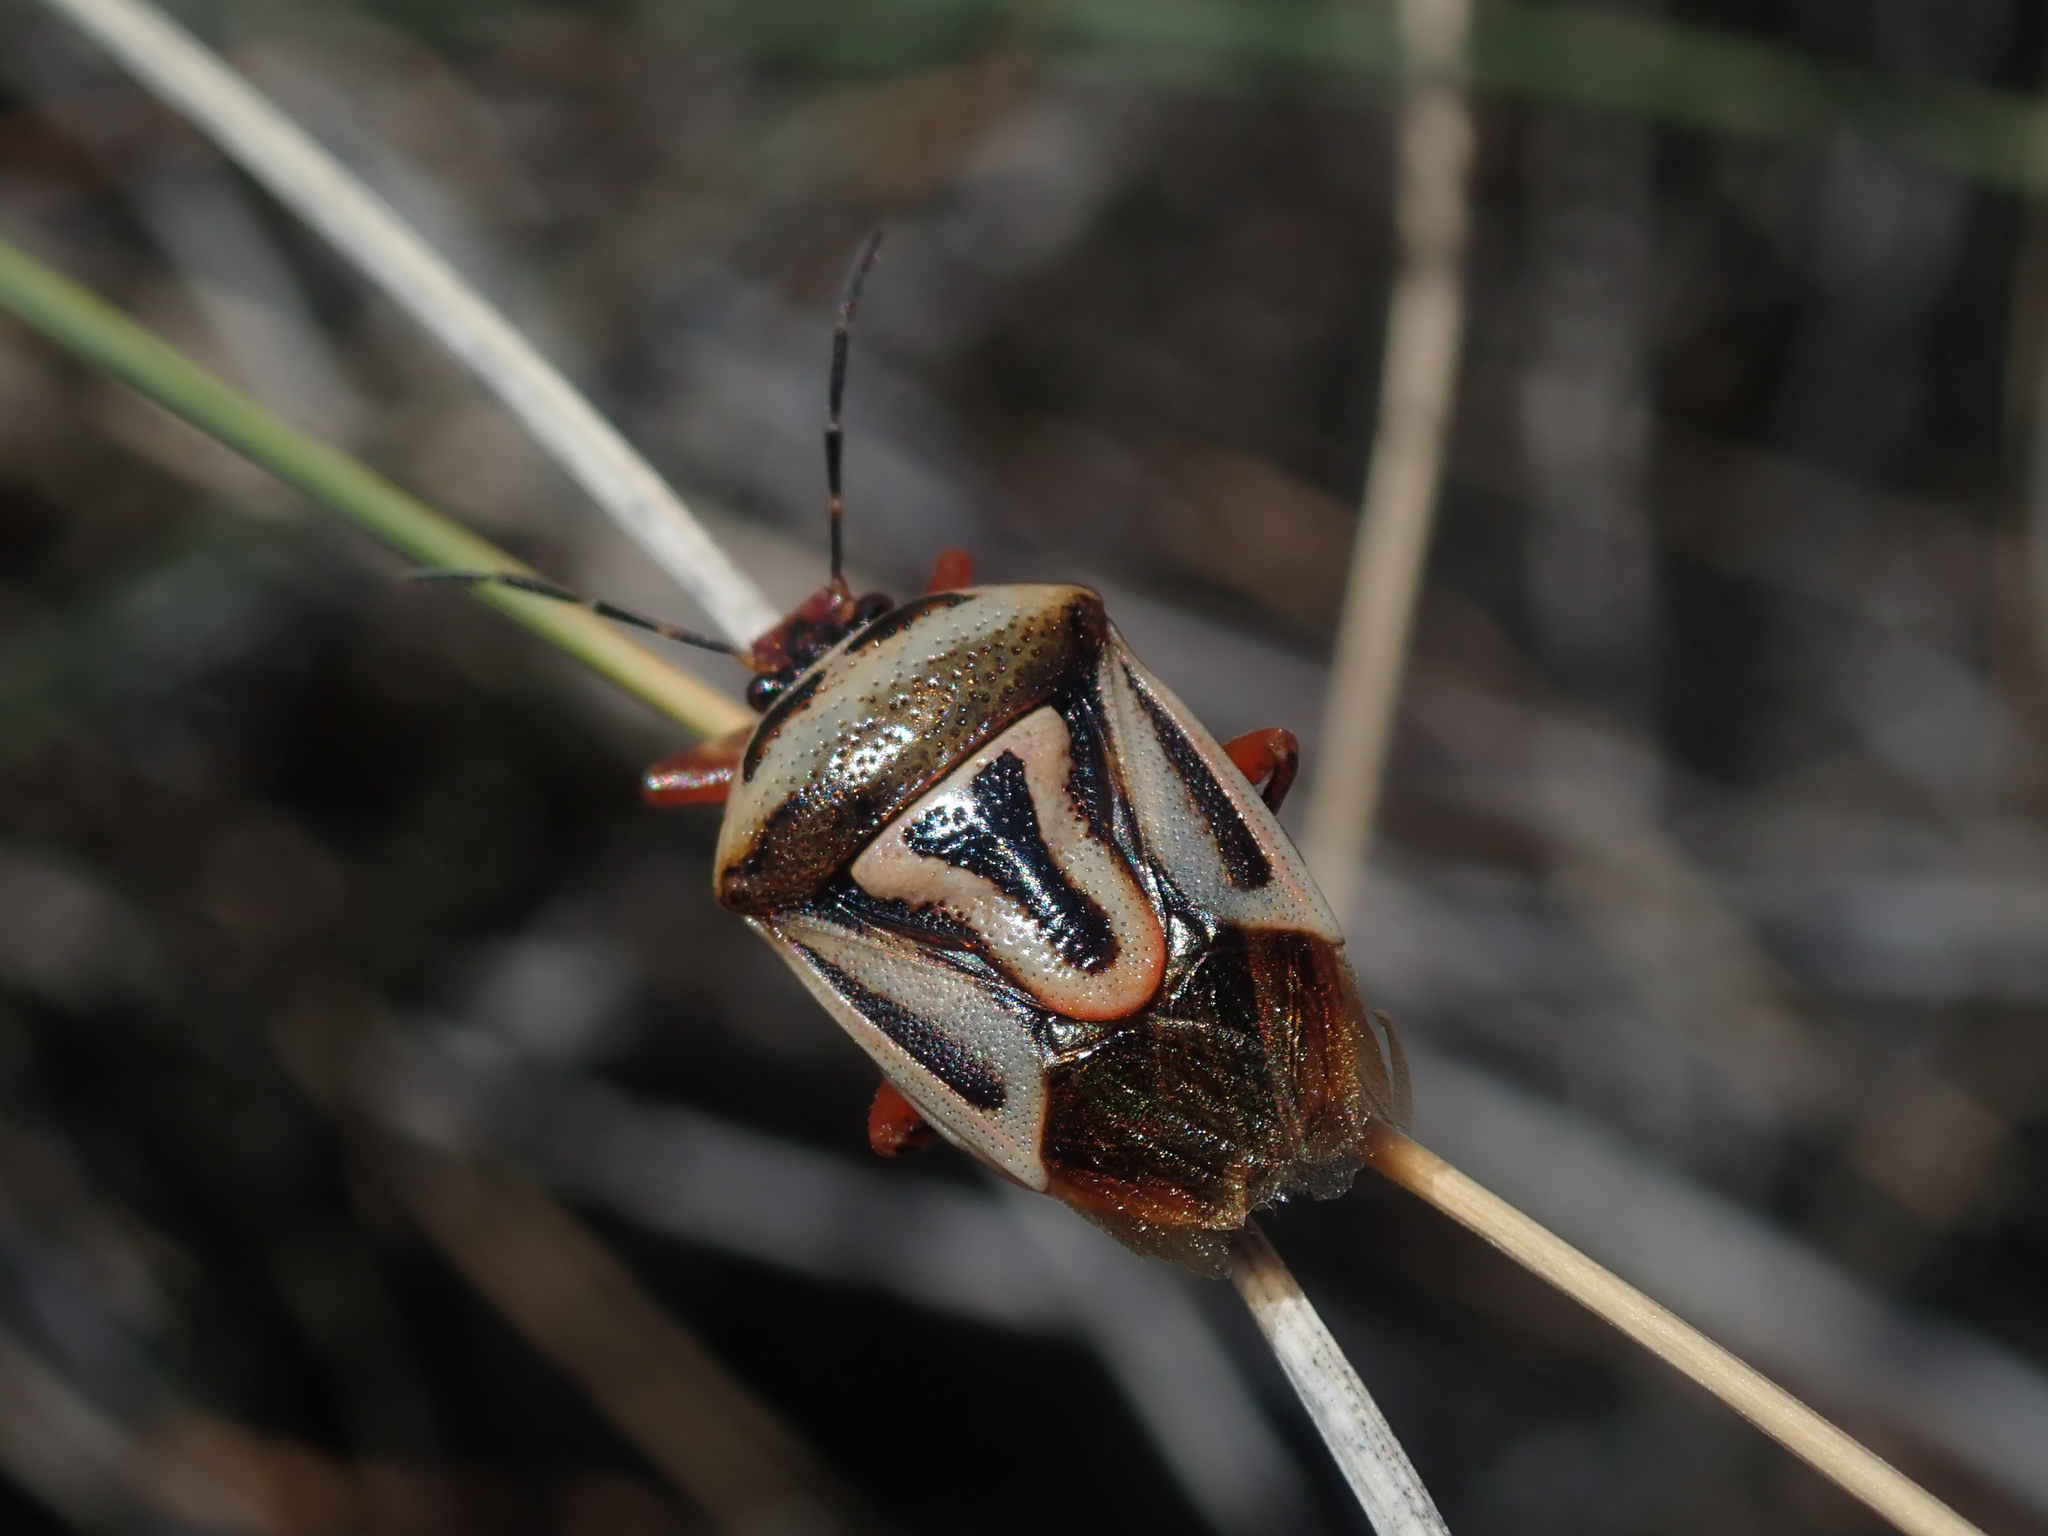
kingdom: Animalia
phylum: Arthropoda
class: Insecta
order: Hemiptera
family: Pentatomidae
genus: Perillus
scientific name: Perillus bioculatus
